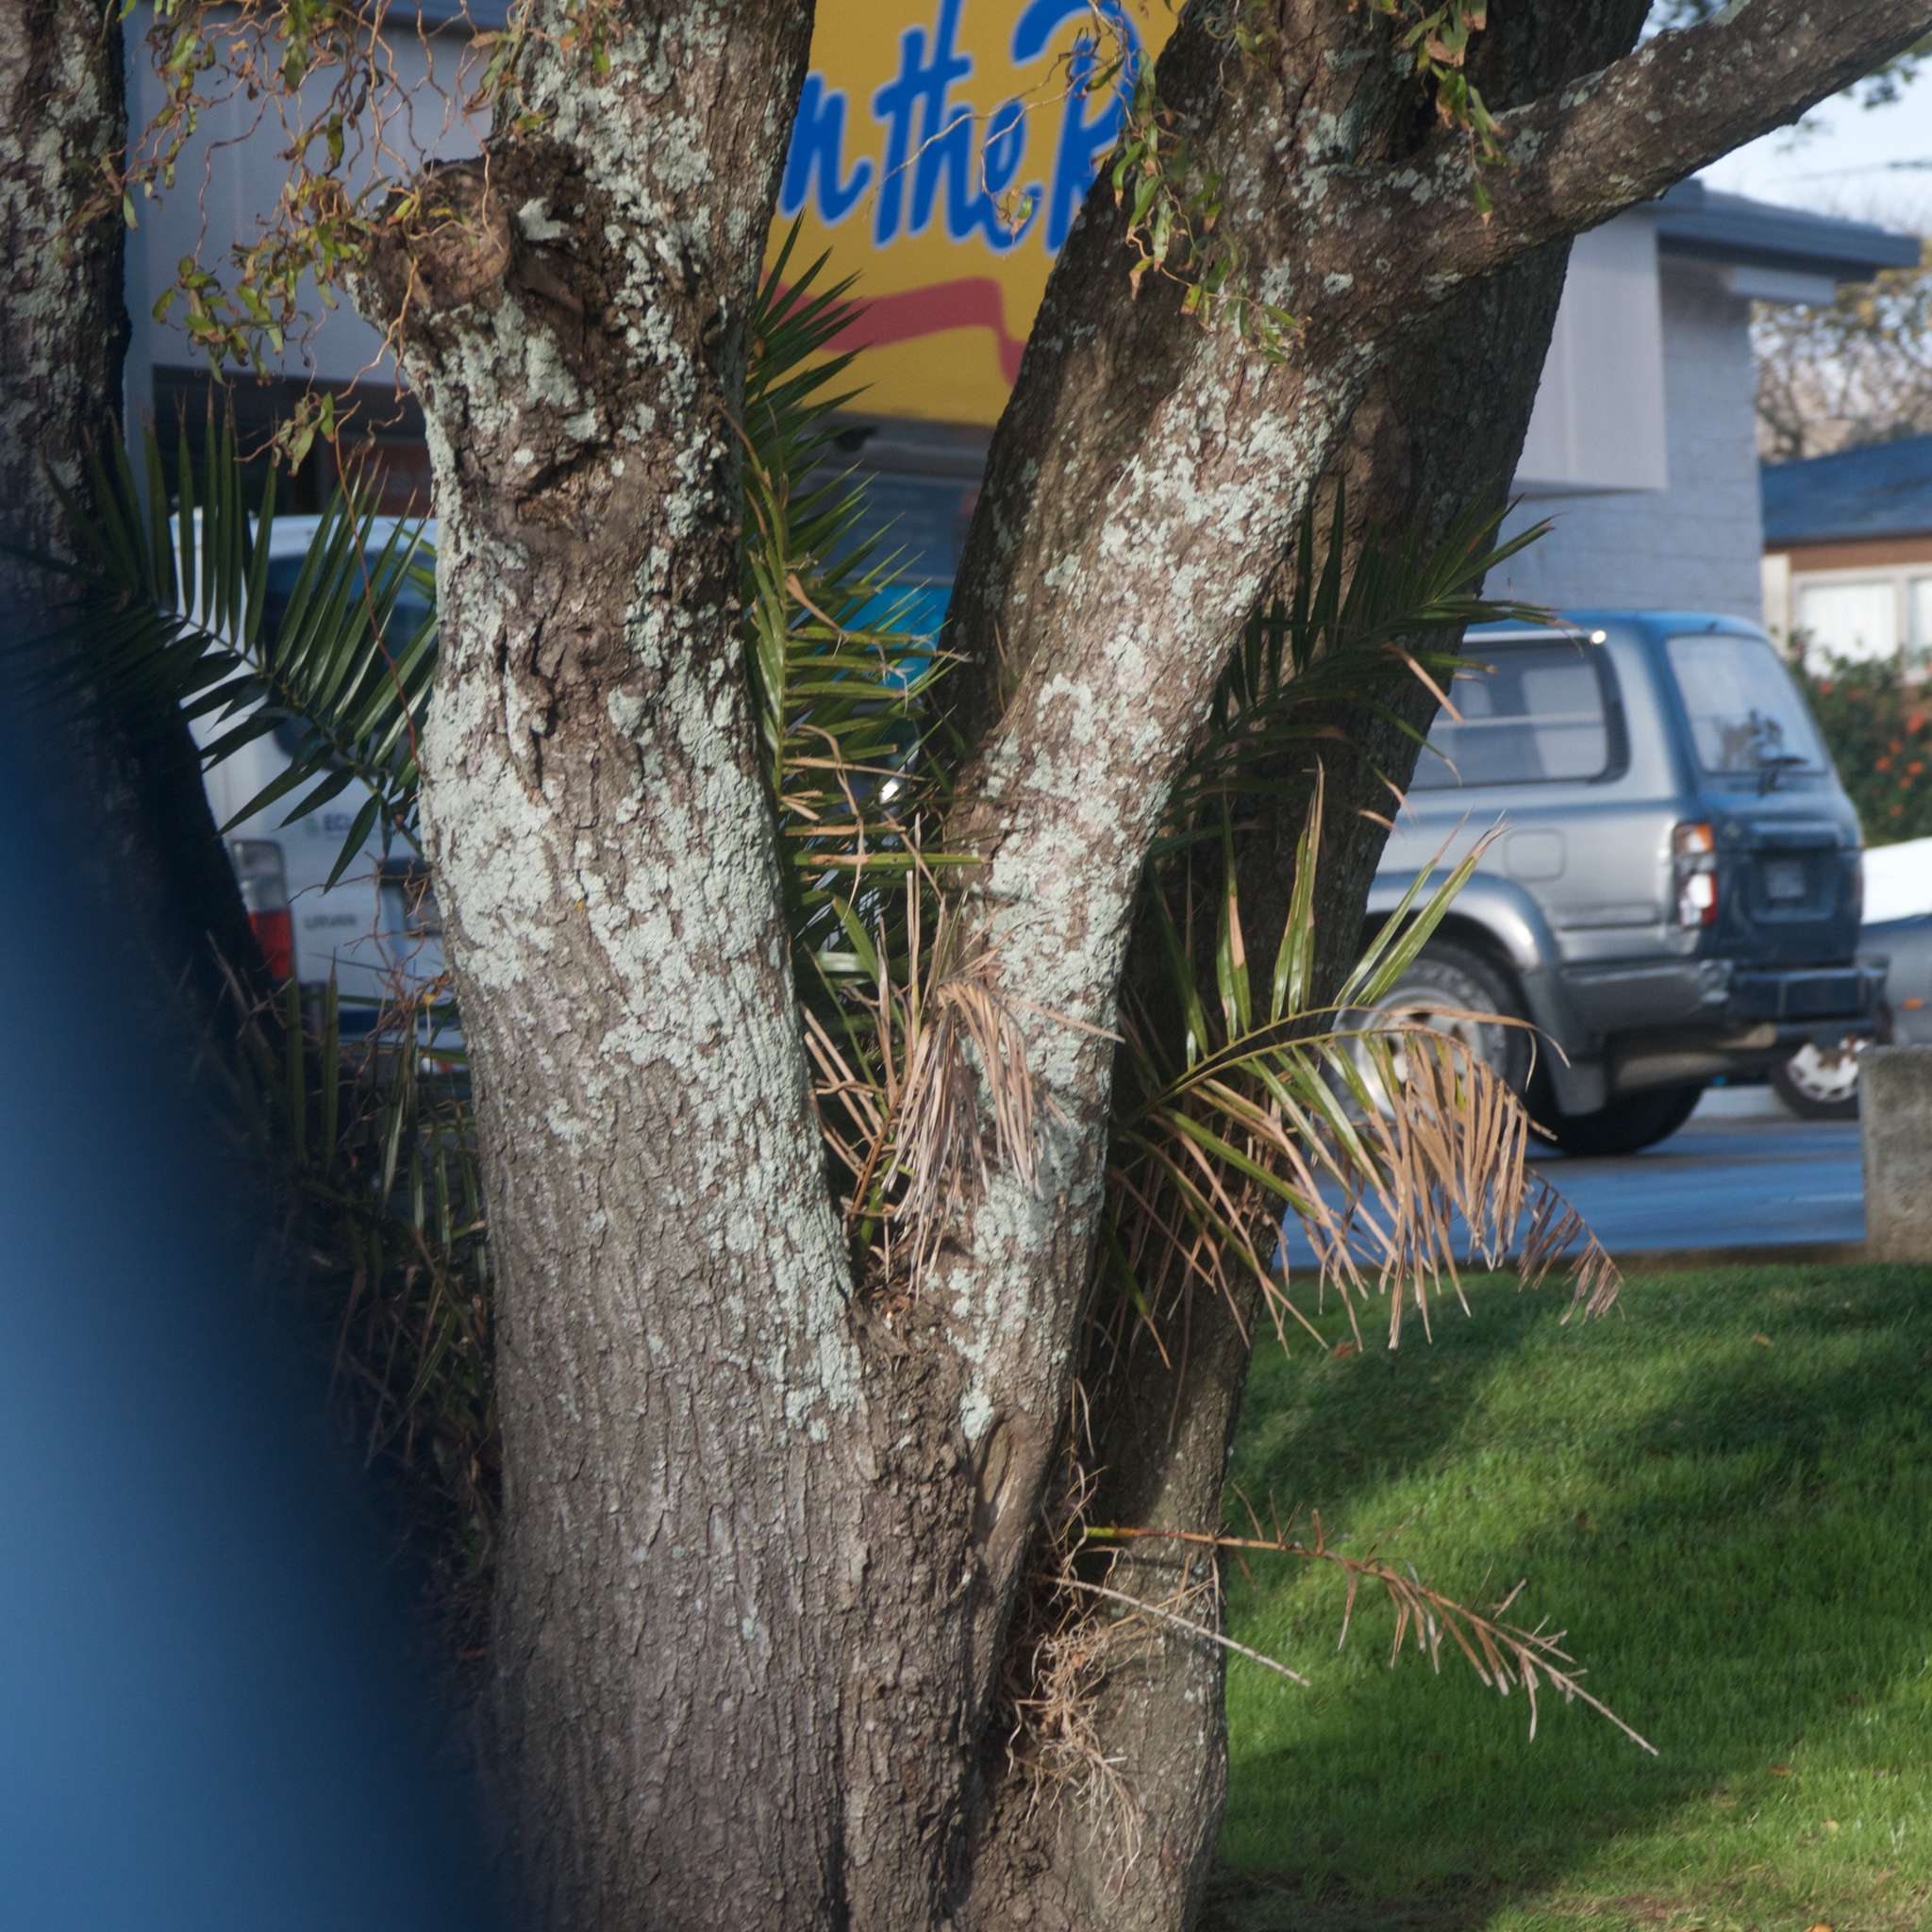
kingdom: Plantae
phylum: Tracheophyta
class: Liliopsida
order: Arecales
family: Arecaceae
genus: Phoenix
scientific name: Phoenix canariensis
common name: Canary island date palm
